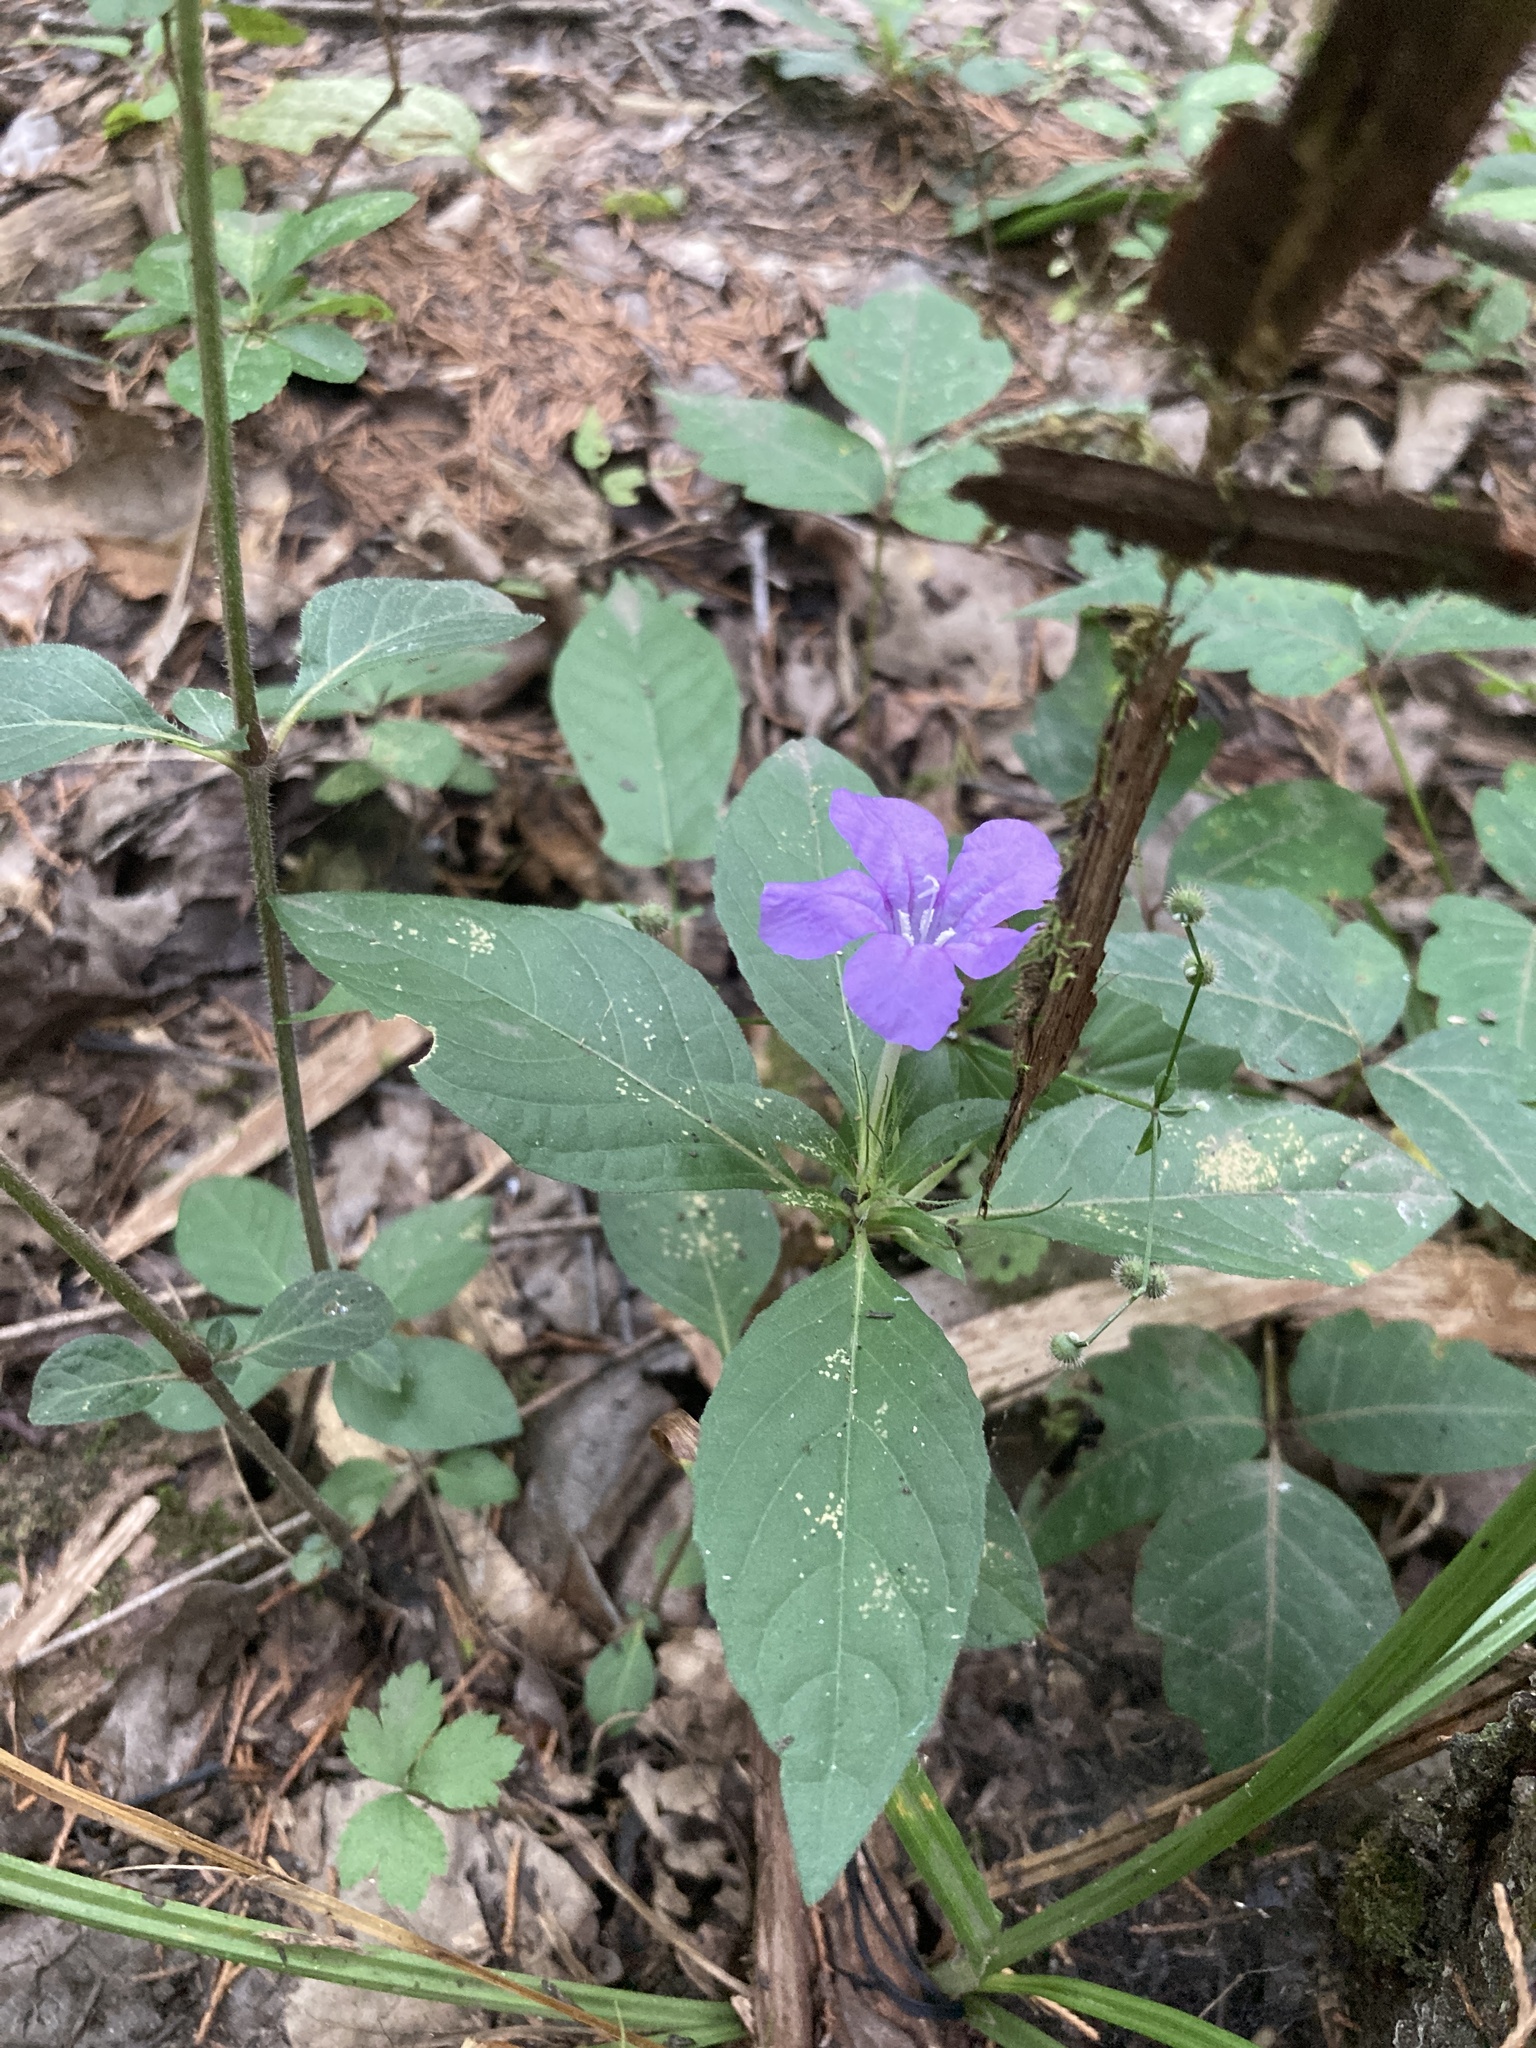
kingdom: Plantae
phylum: Tracheophyta
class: Magnoliopsida
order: Lamiales
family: Acanthaceae
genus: Ruellia
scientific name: Ruellia caroliniensis
